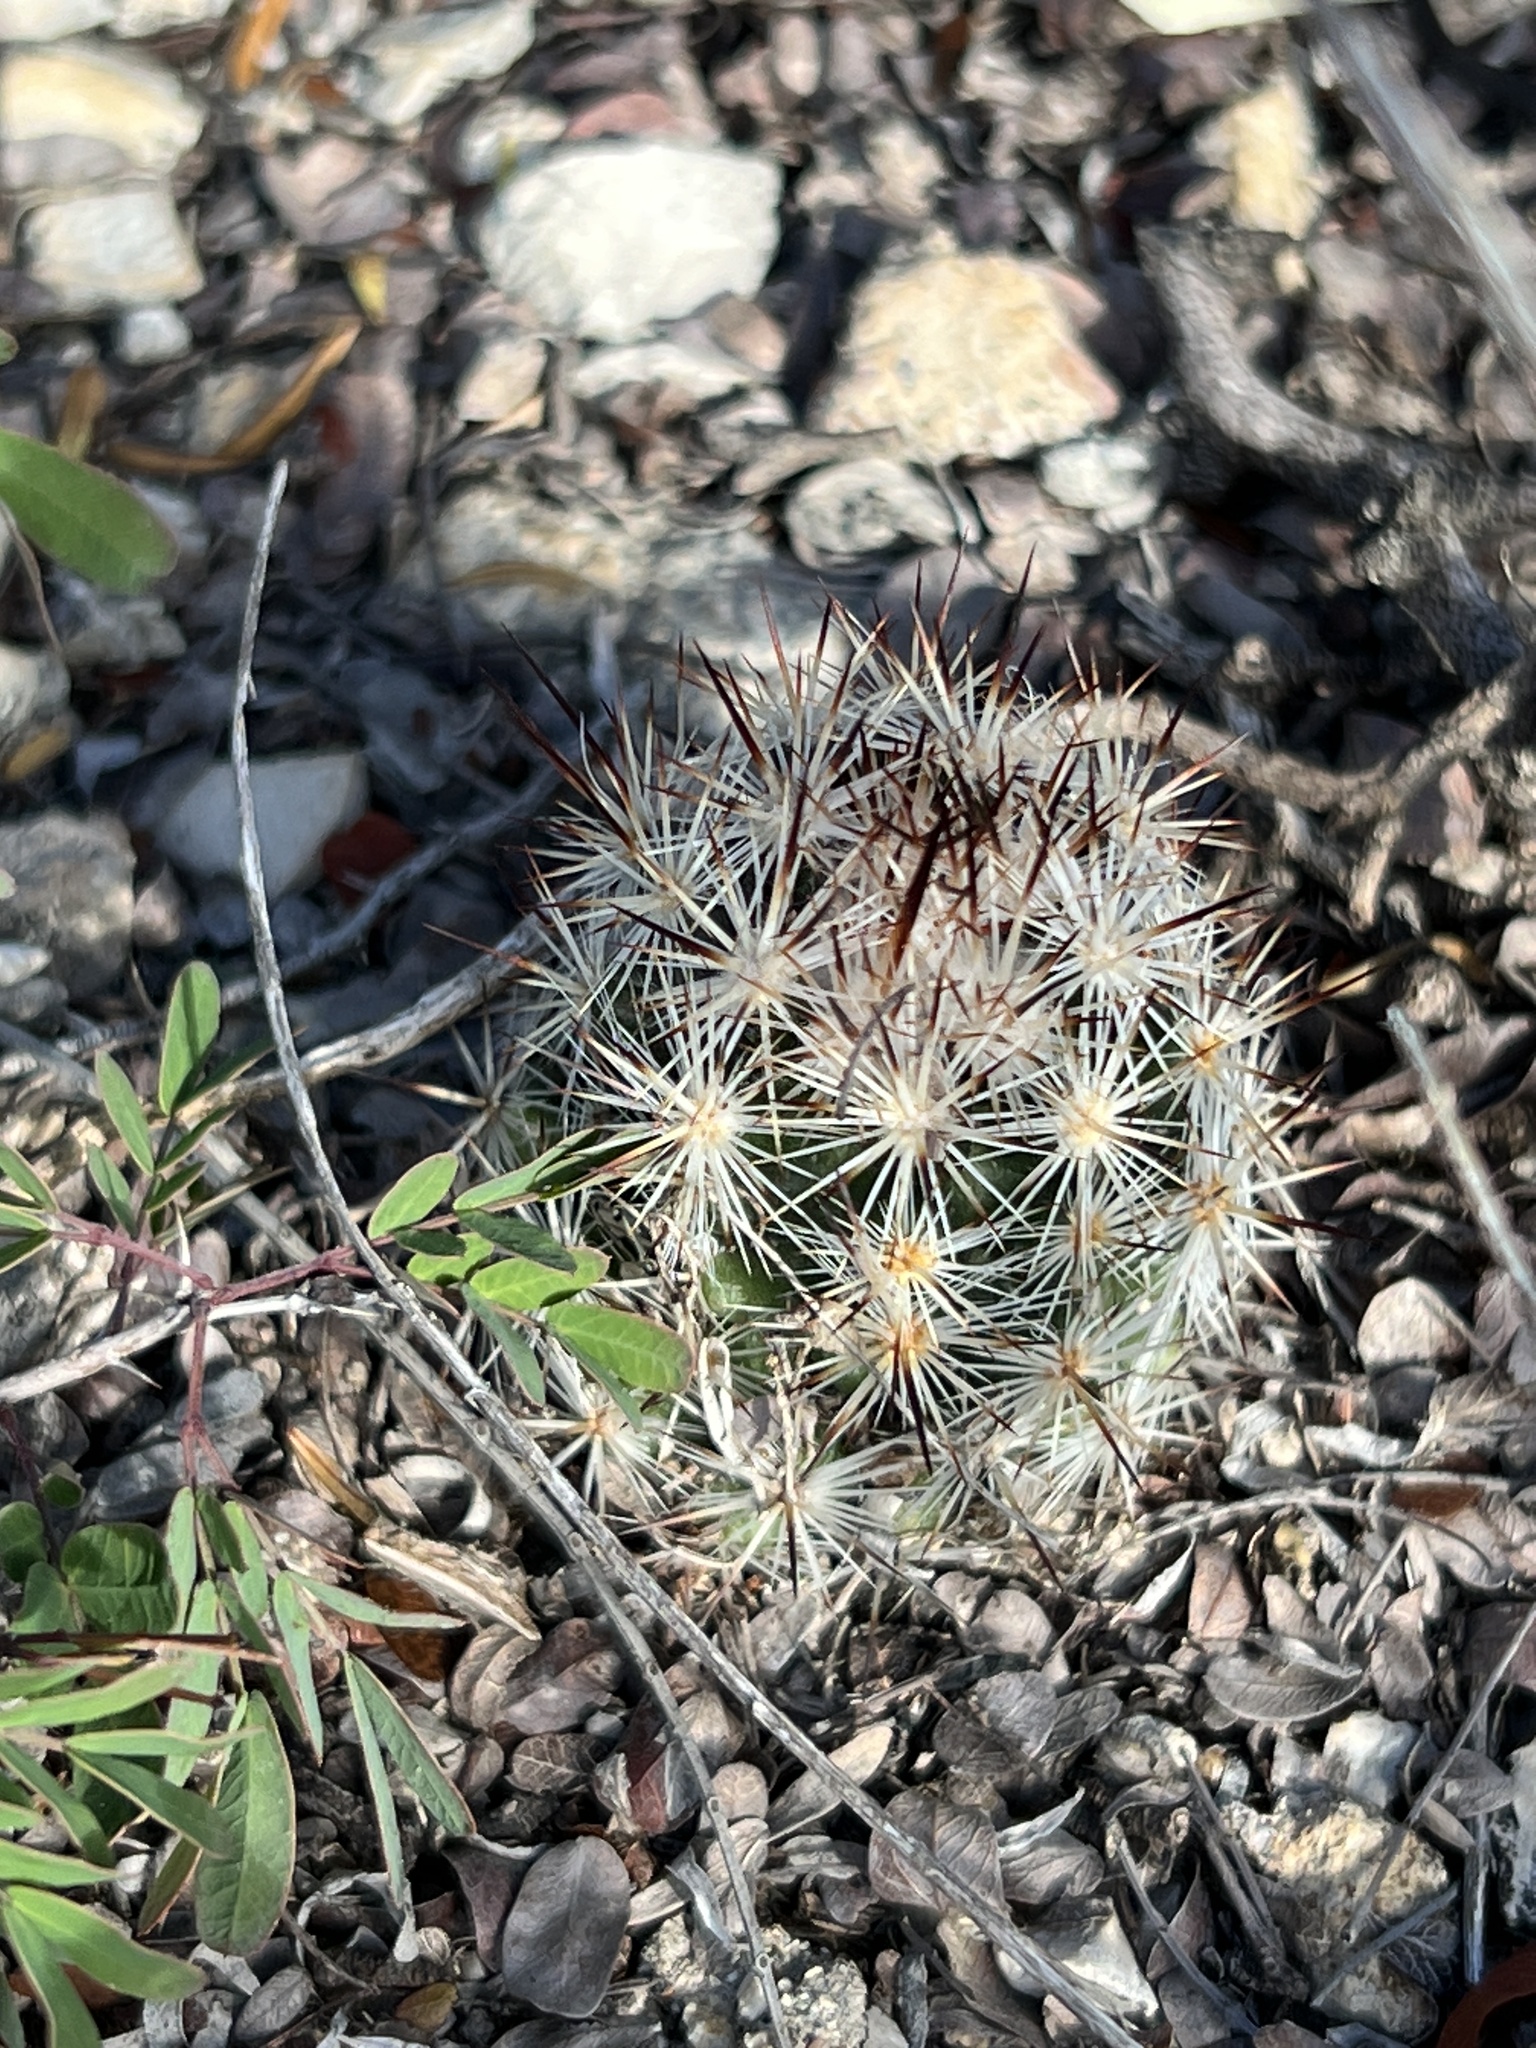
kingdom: Plantae
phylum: Tracheophyta
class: Magnoliopsida
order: Caryophyllales
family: Cactaceae
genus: Pelecyphora
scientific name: Pelecyphora emskoetteriana
